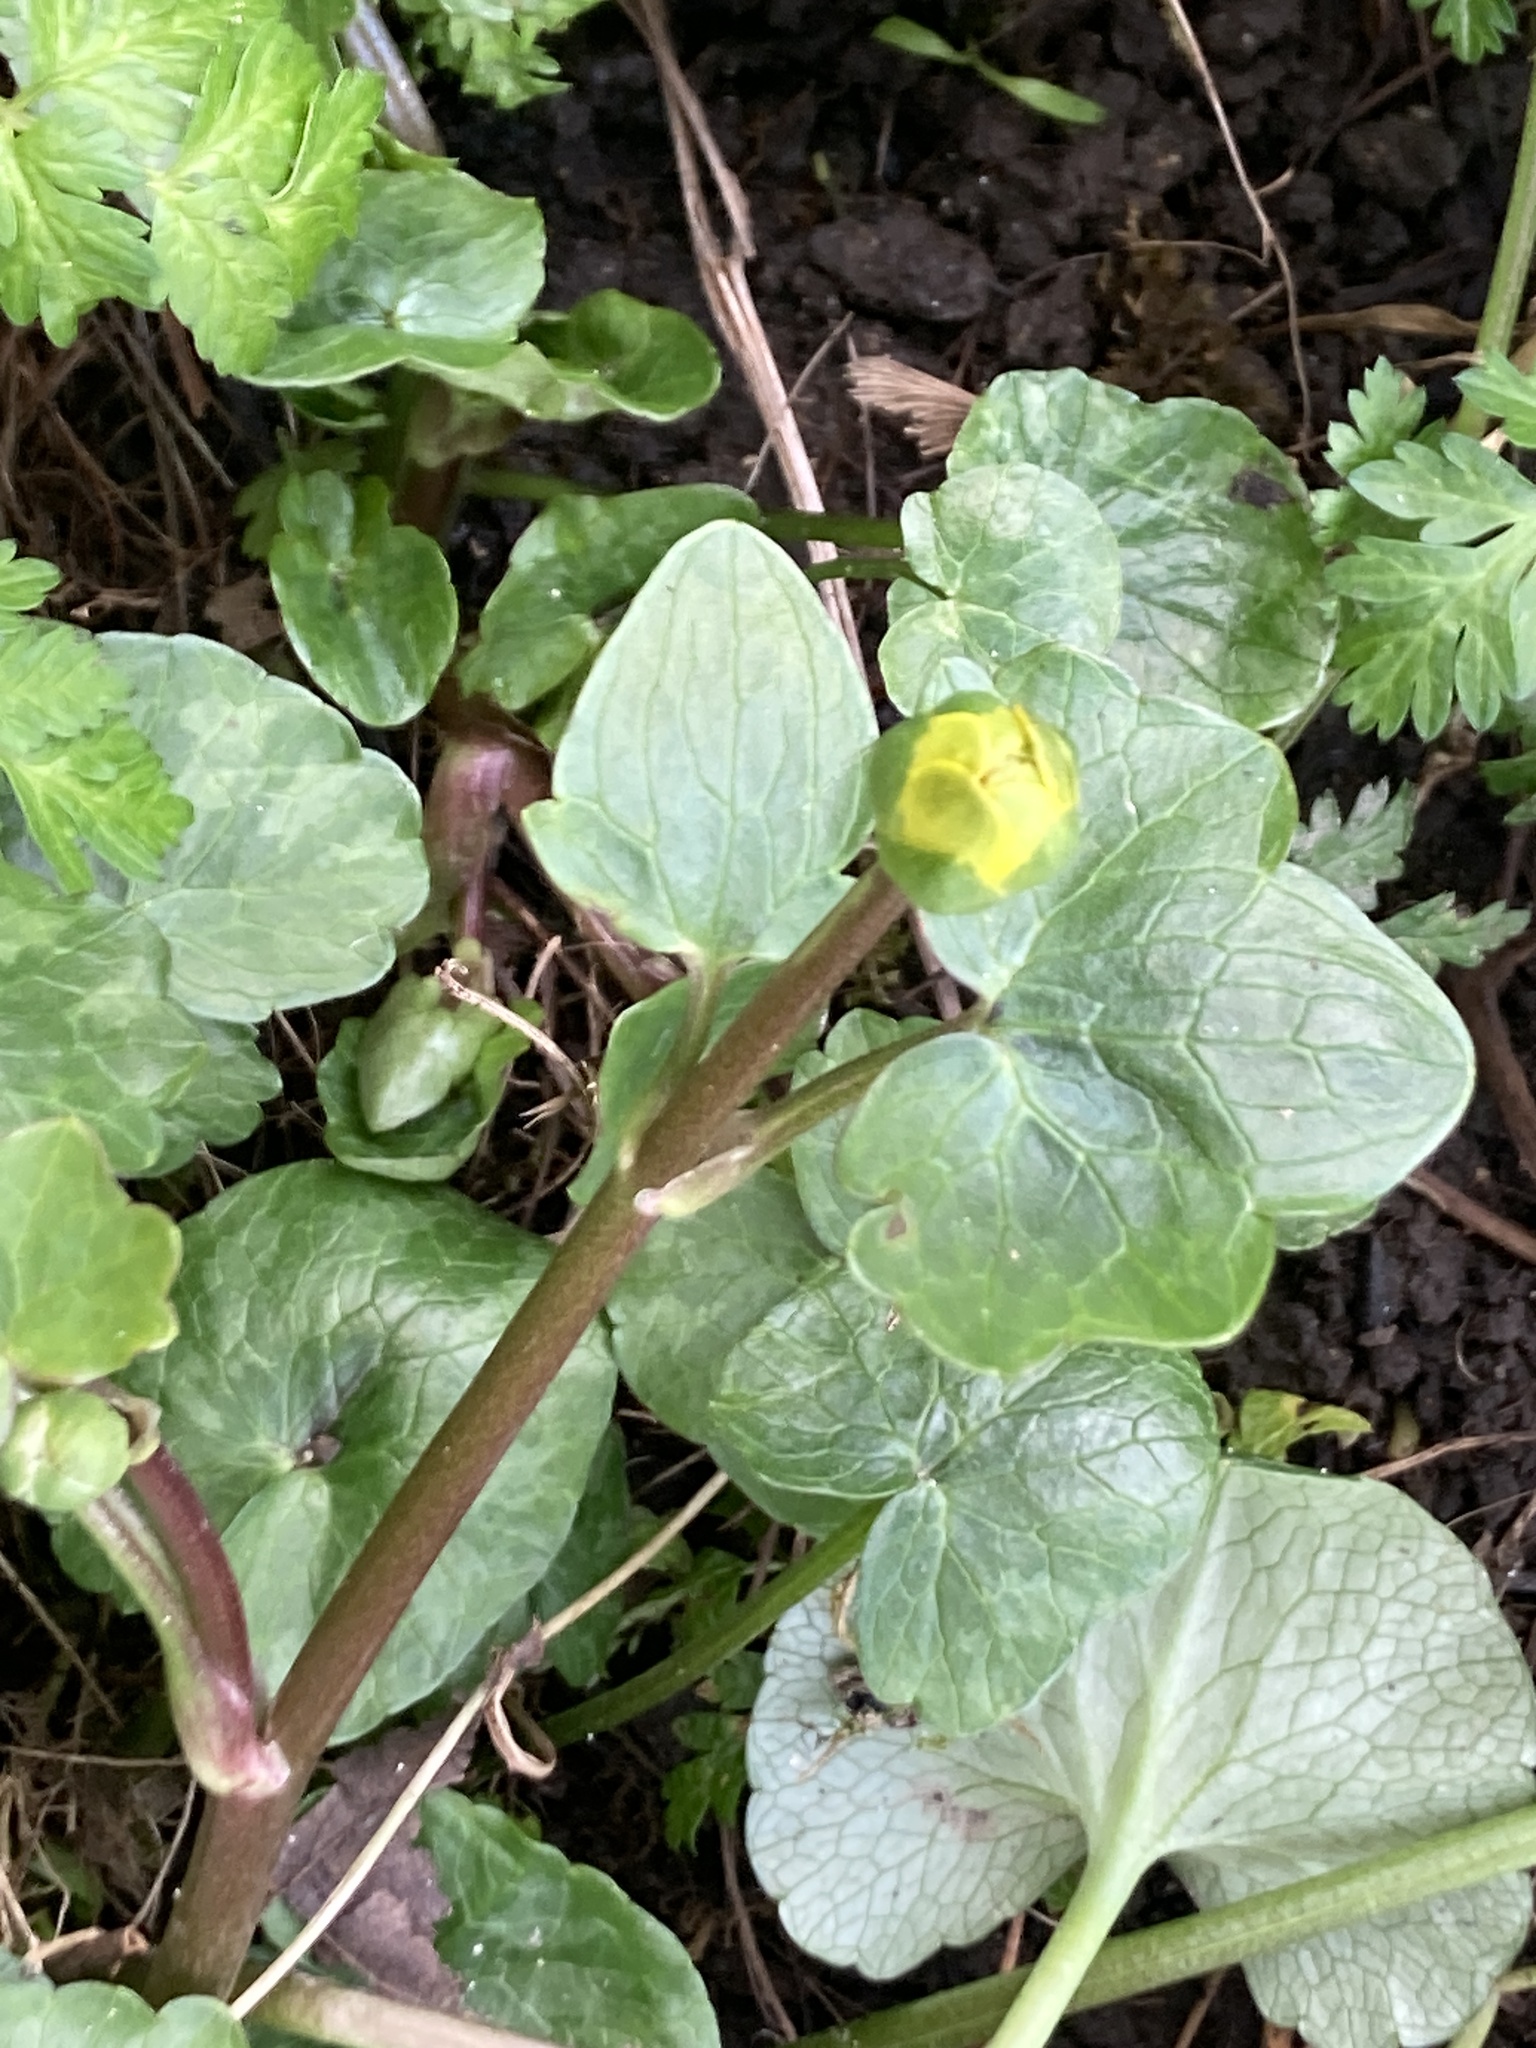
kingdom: Plantae
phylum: Tracheophyta
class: Magnoliopsida
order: Ranunculales
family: Ranunculaceae
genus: Ficaria
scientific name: Ficaria verna
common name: Lesser celandine
